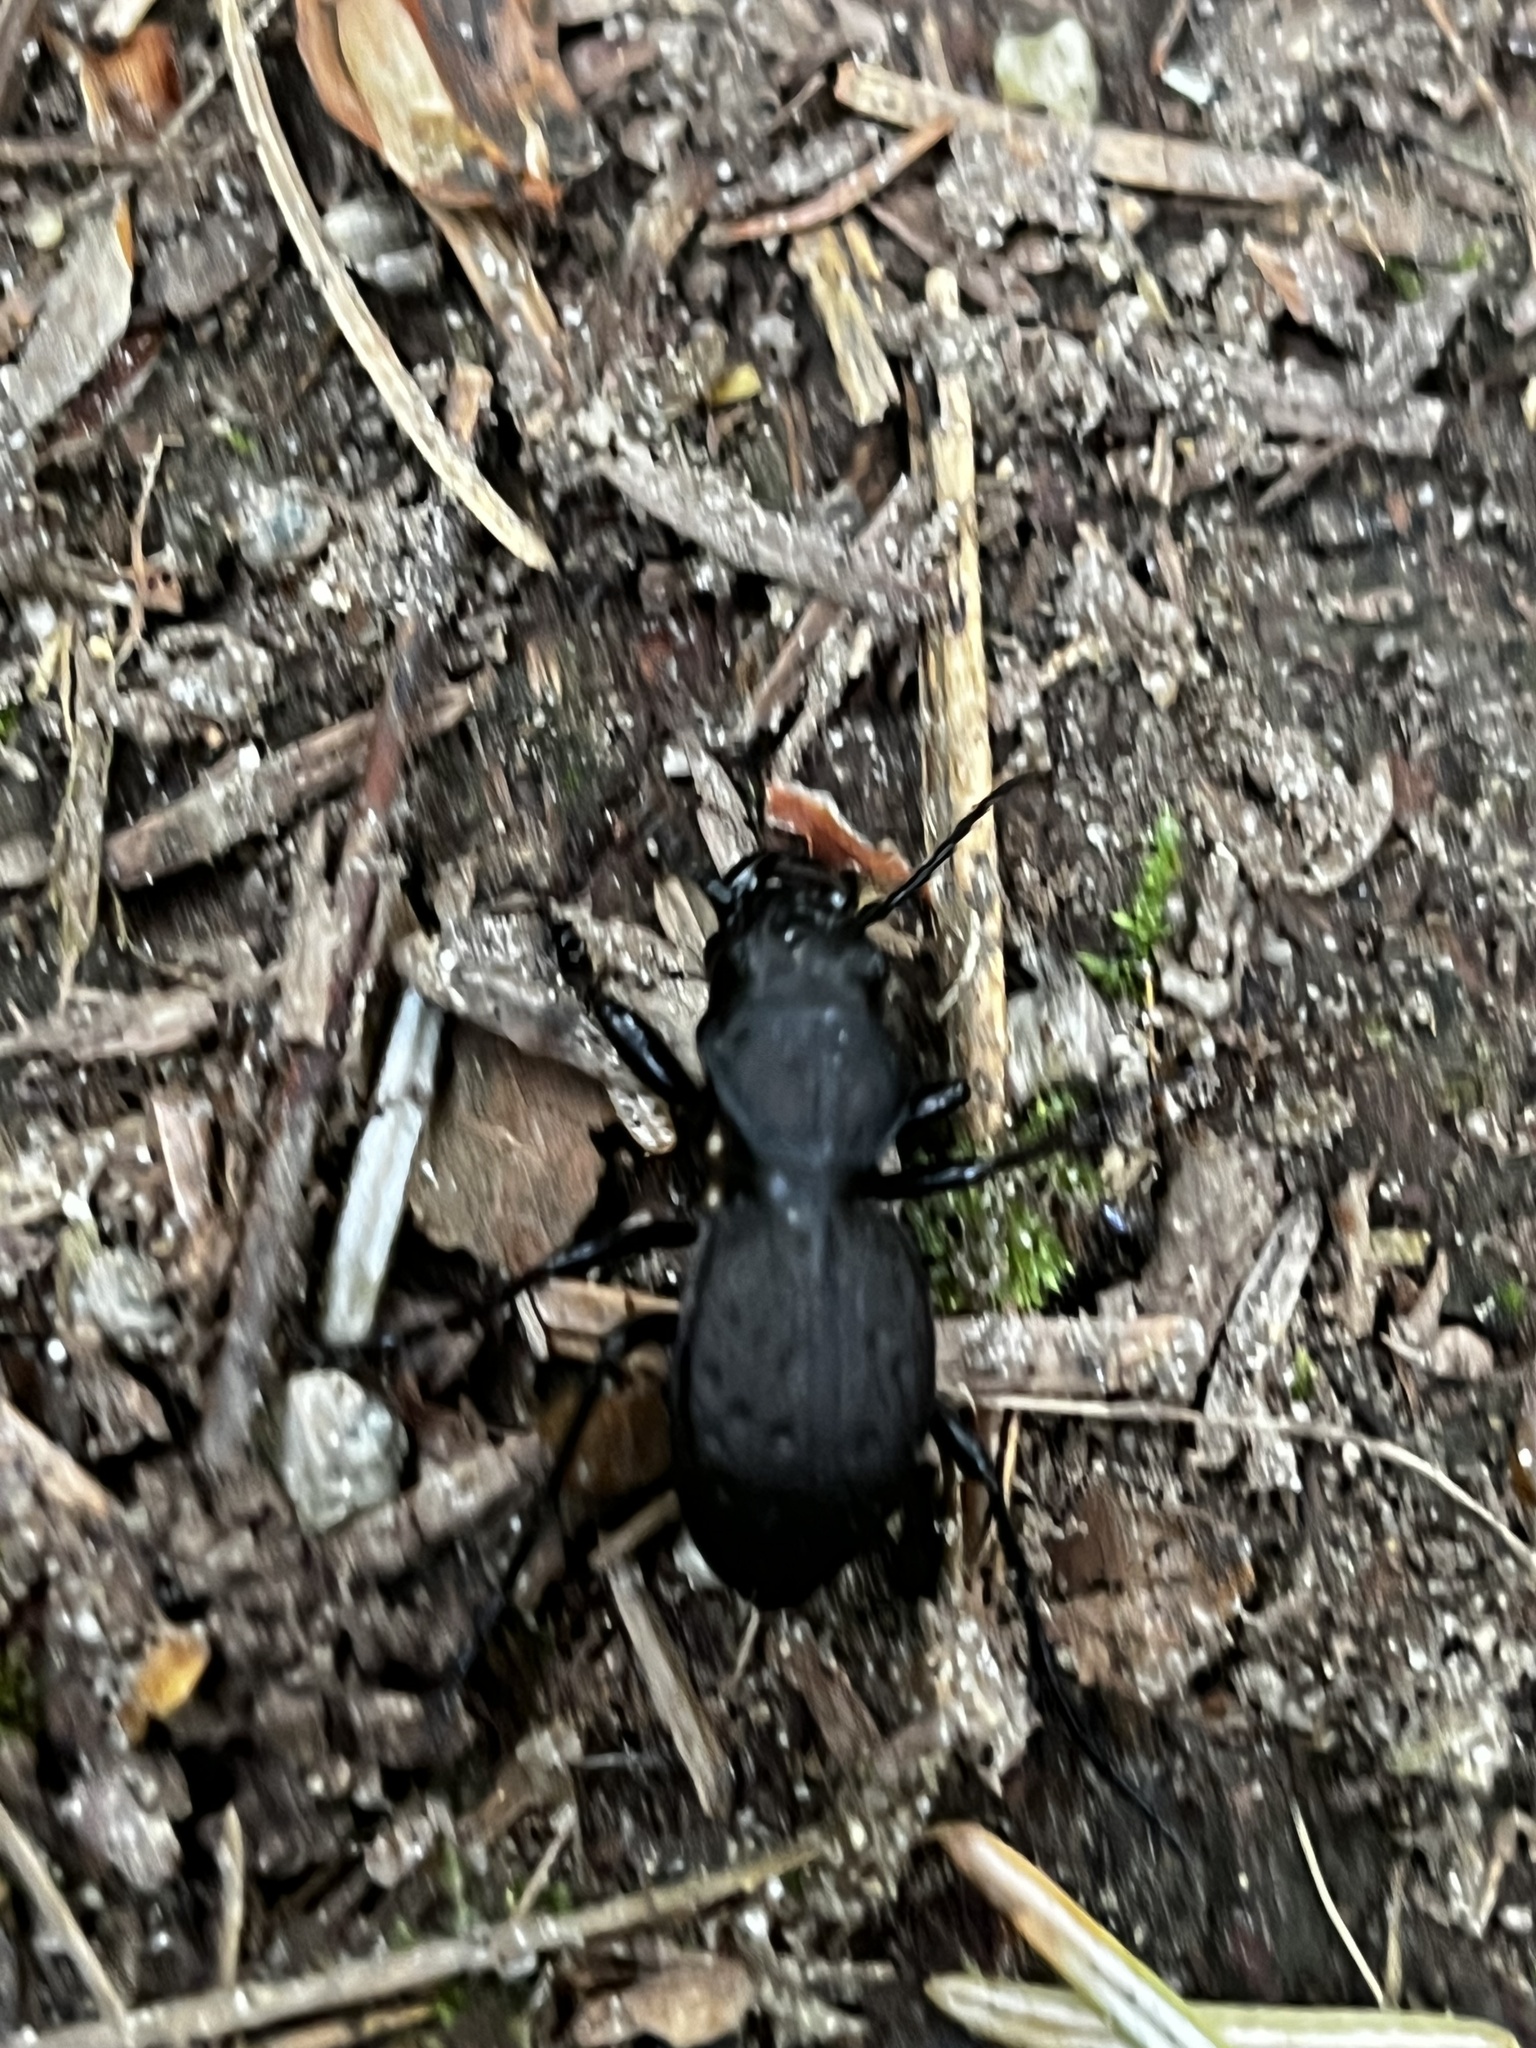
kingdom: Animalia
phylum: Arthropoda
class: Insecta
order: Coleoptera
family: Carabidae
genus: Omus
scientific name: Omus dejeanii
